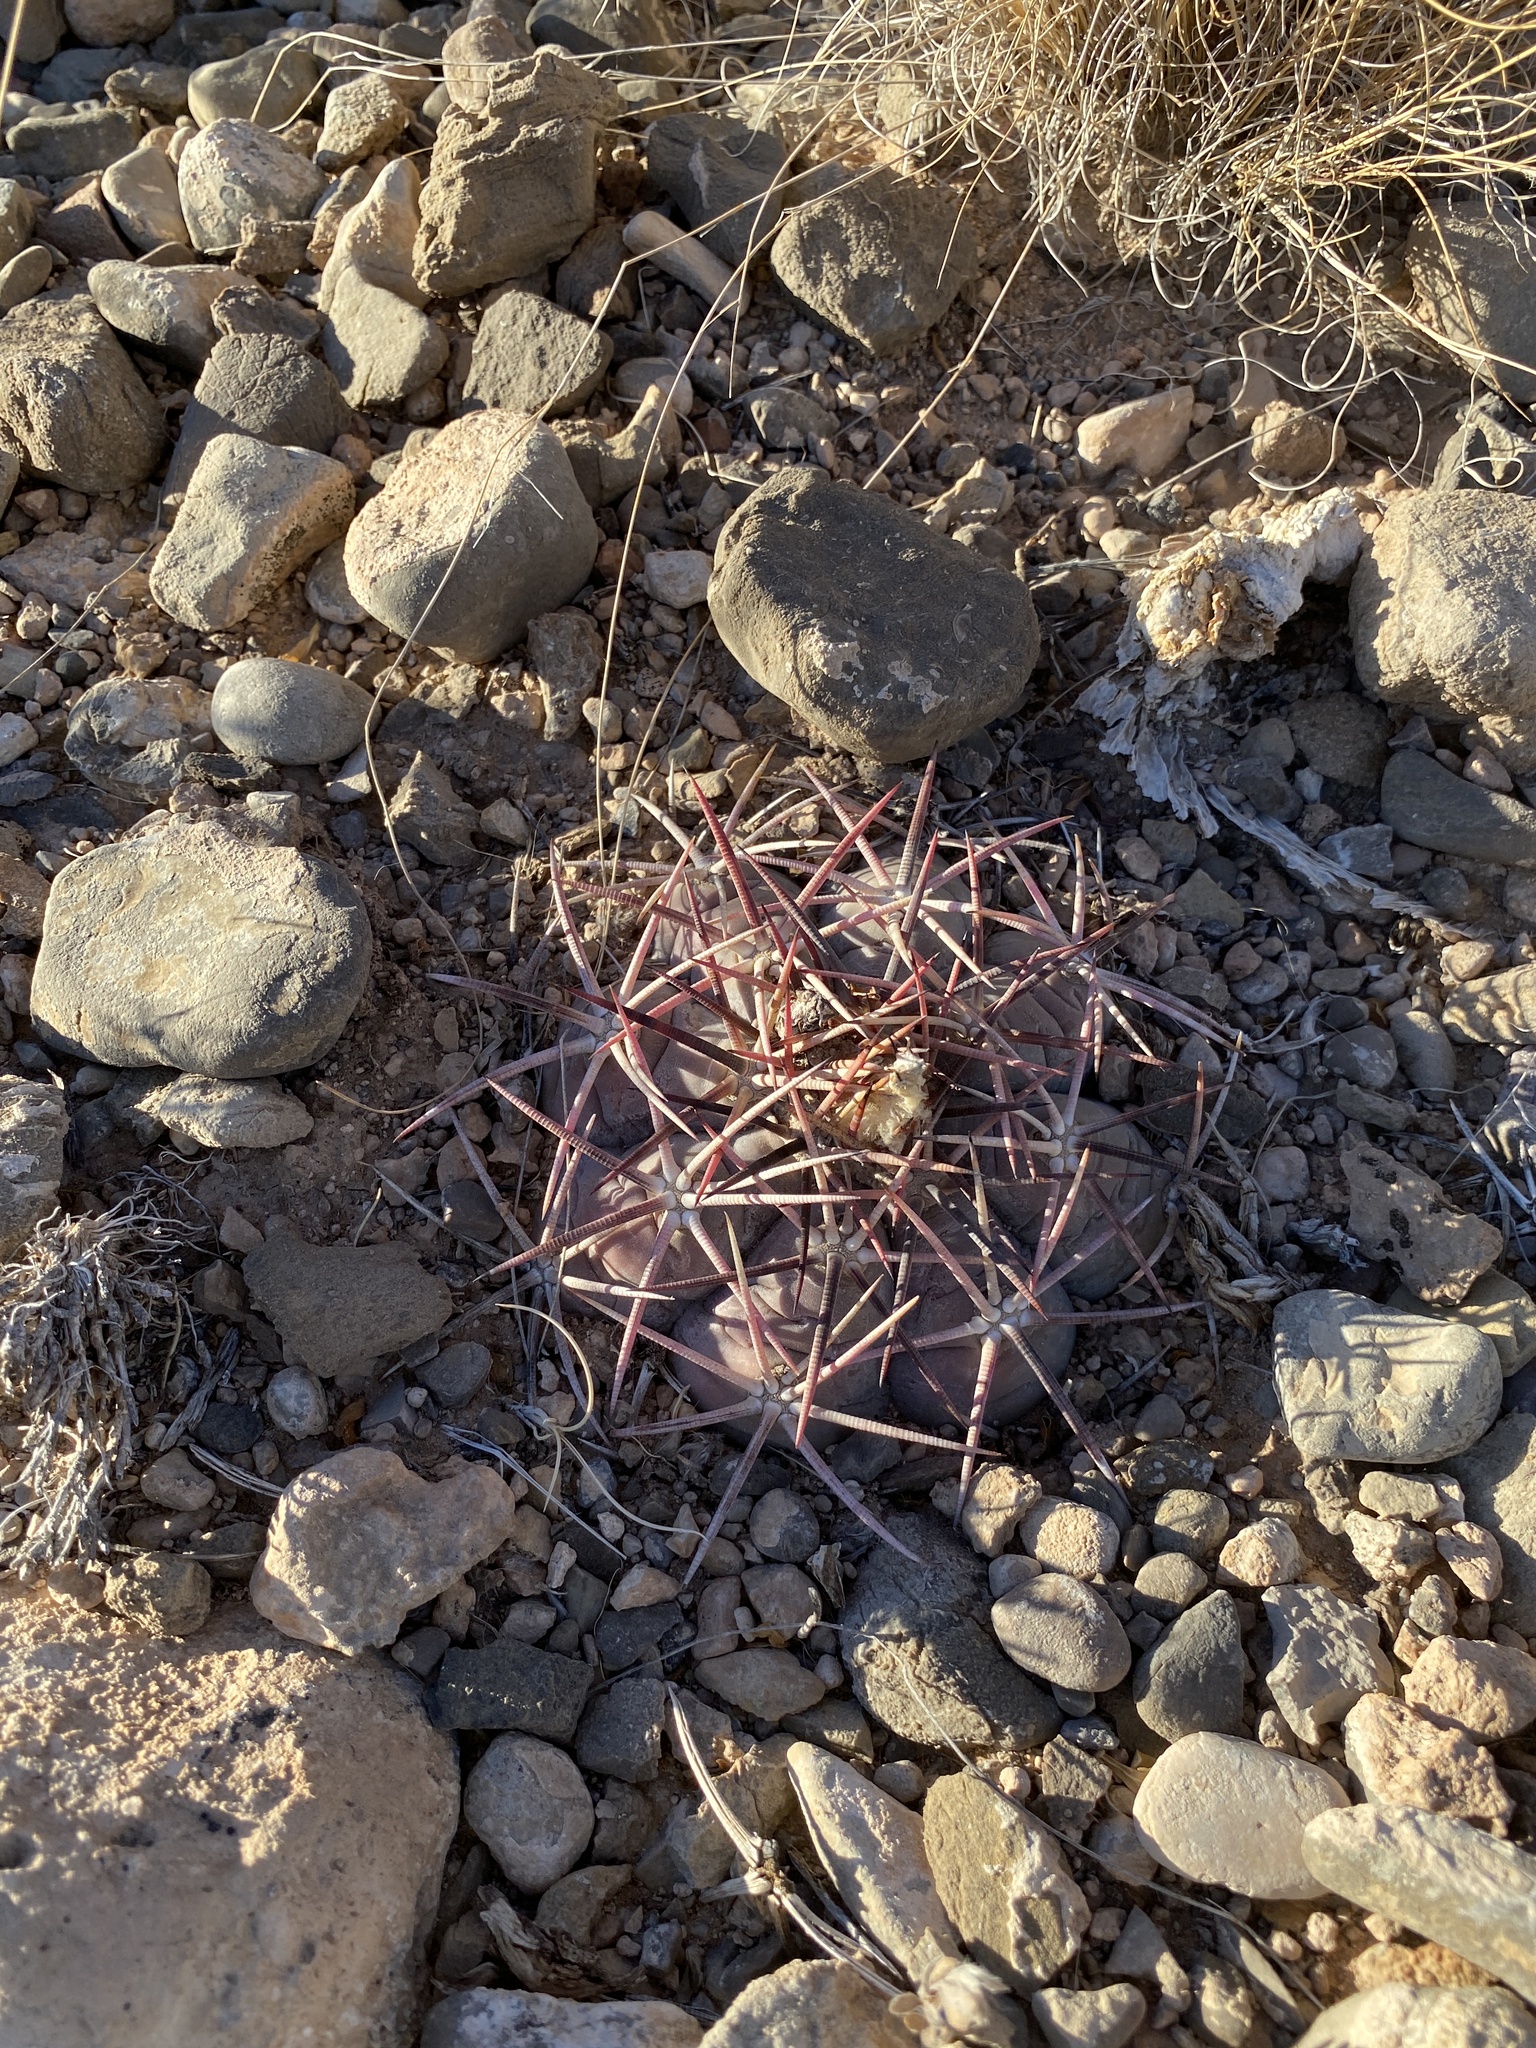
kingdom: Plantae
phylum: Tracheophyta
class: Magnoliopsida
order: Caryophyllales
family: Cactaceae
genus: Echinocactus
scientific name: Echinocactus horizonthalonius
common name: Devilshead
